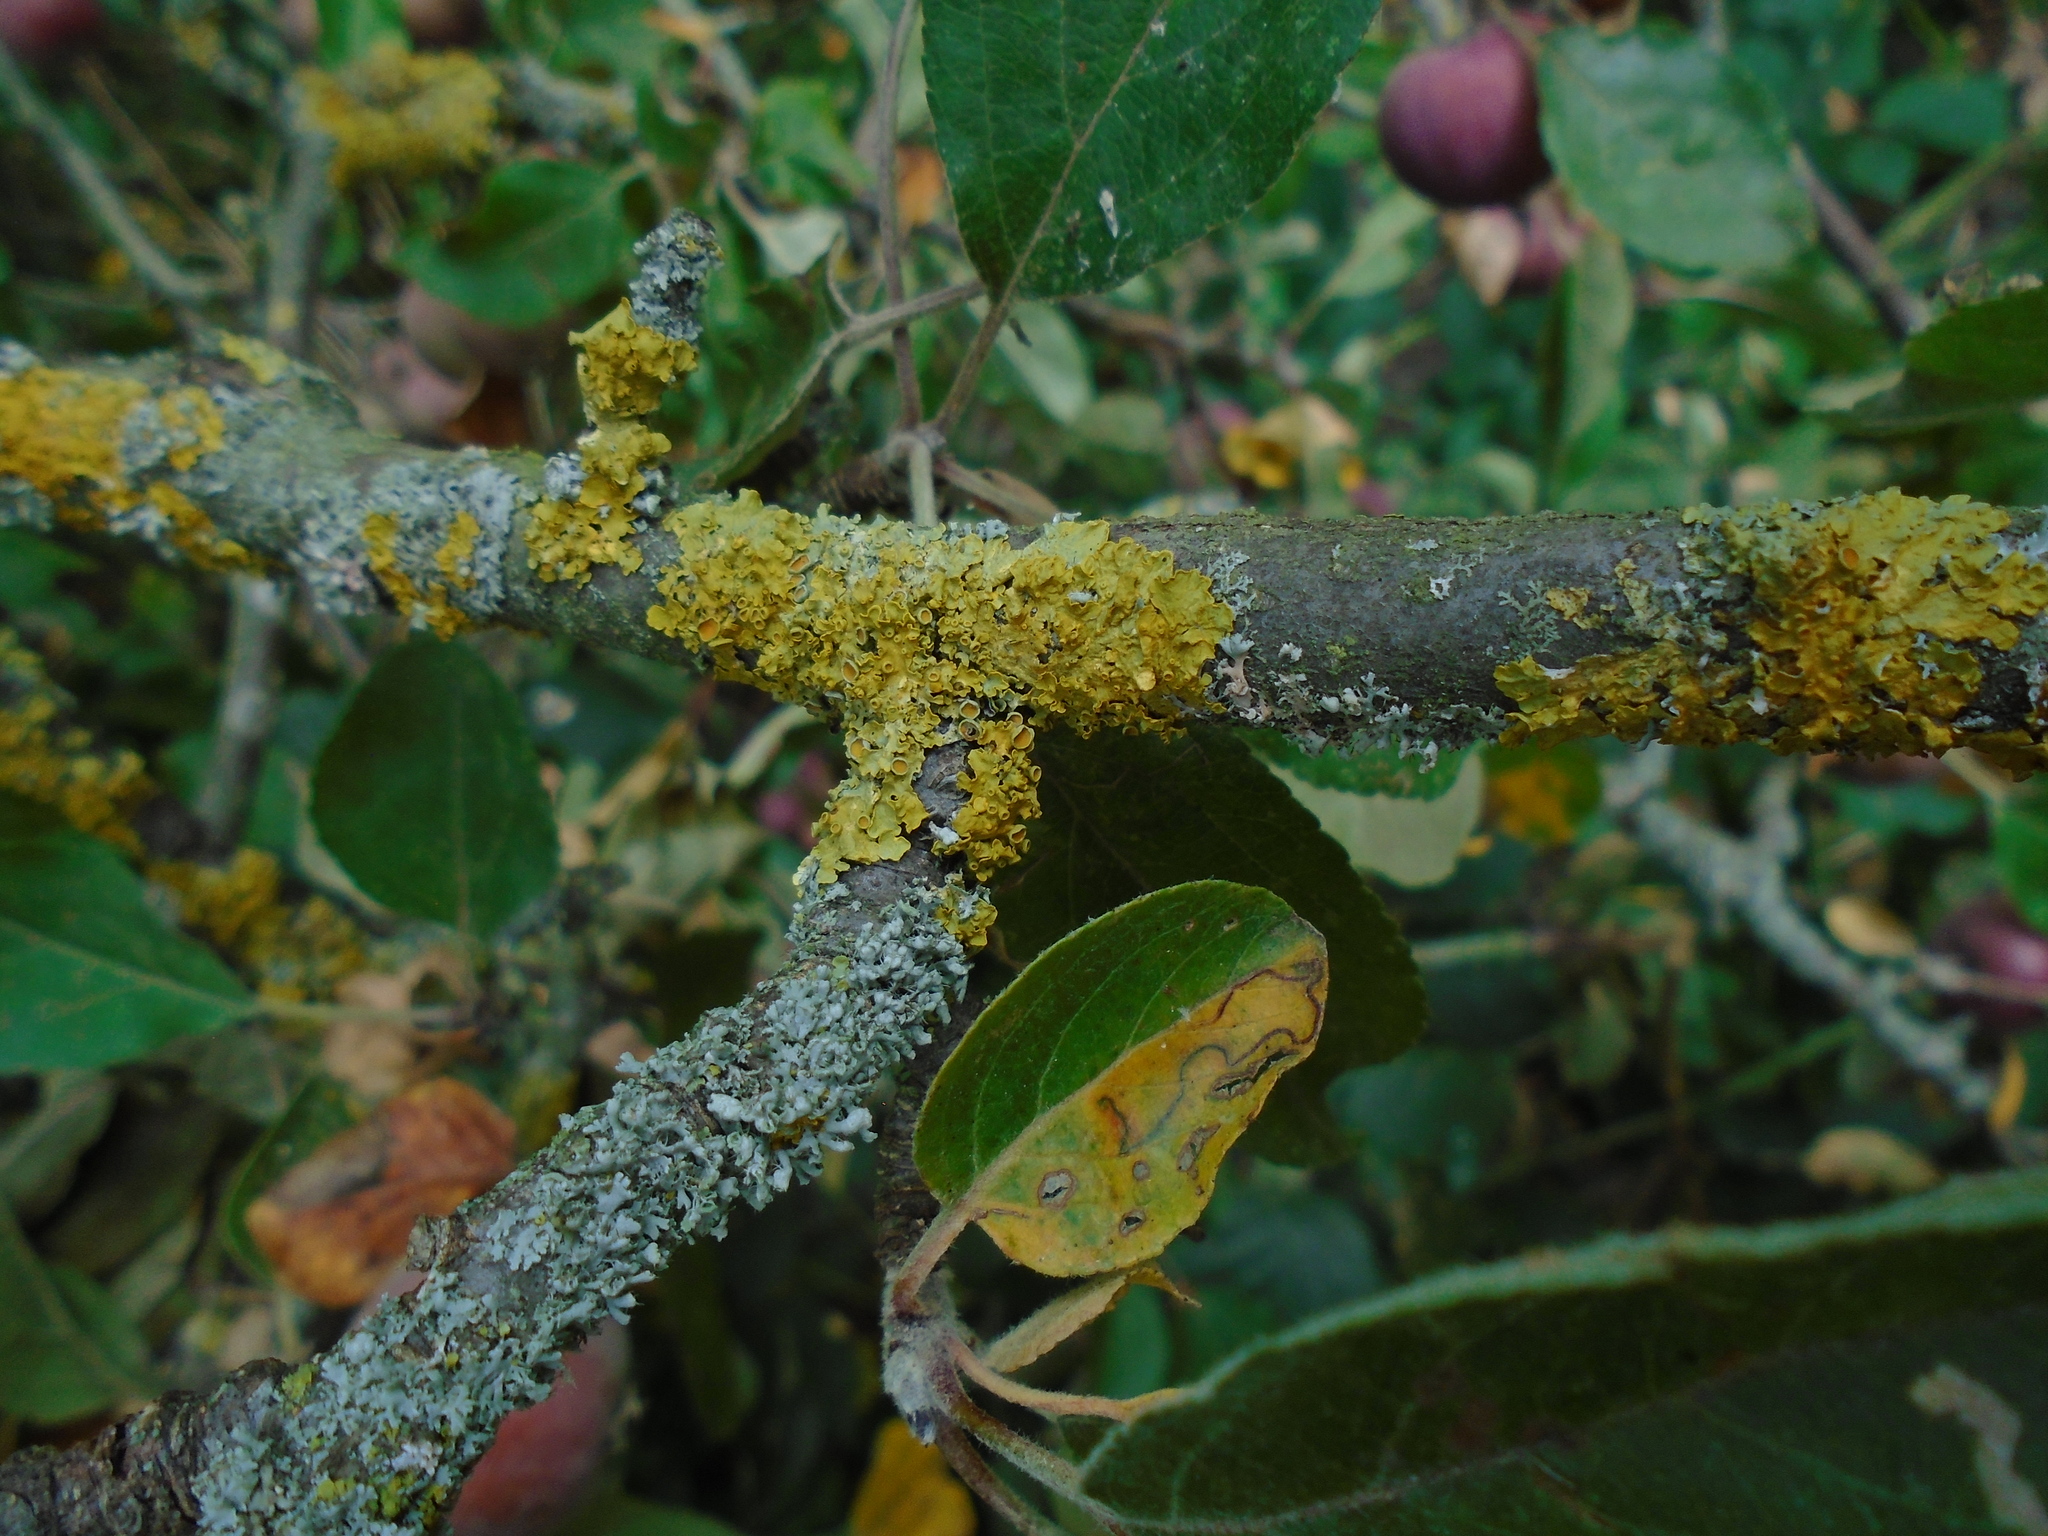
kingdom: Fungi
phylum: Ascomycota
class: Lecanoromycetes
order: Teloschistales
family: Teloschistaceae
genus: Xanthoria
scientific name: Xanthoria parietina
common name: Common orange lichen
